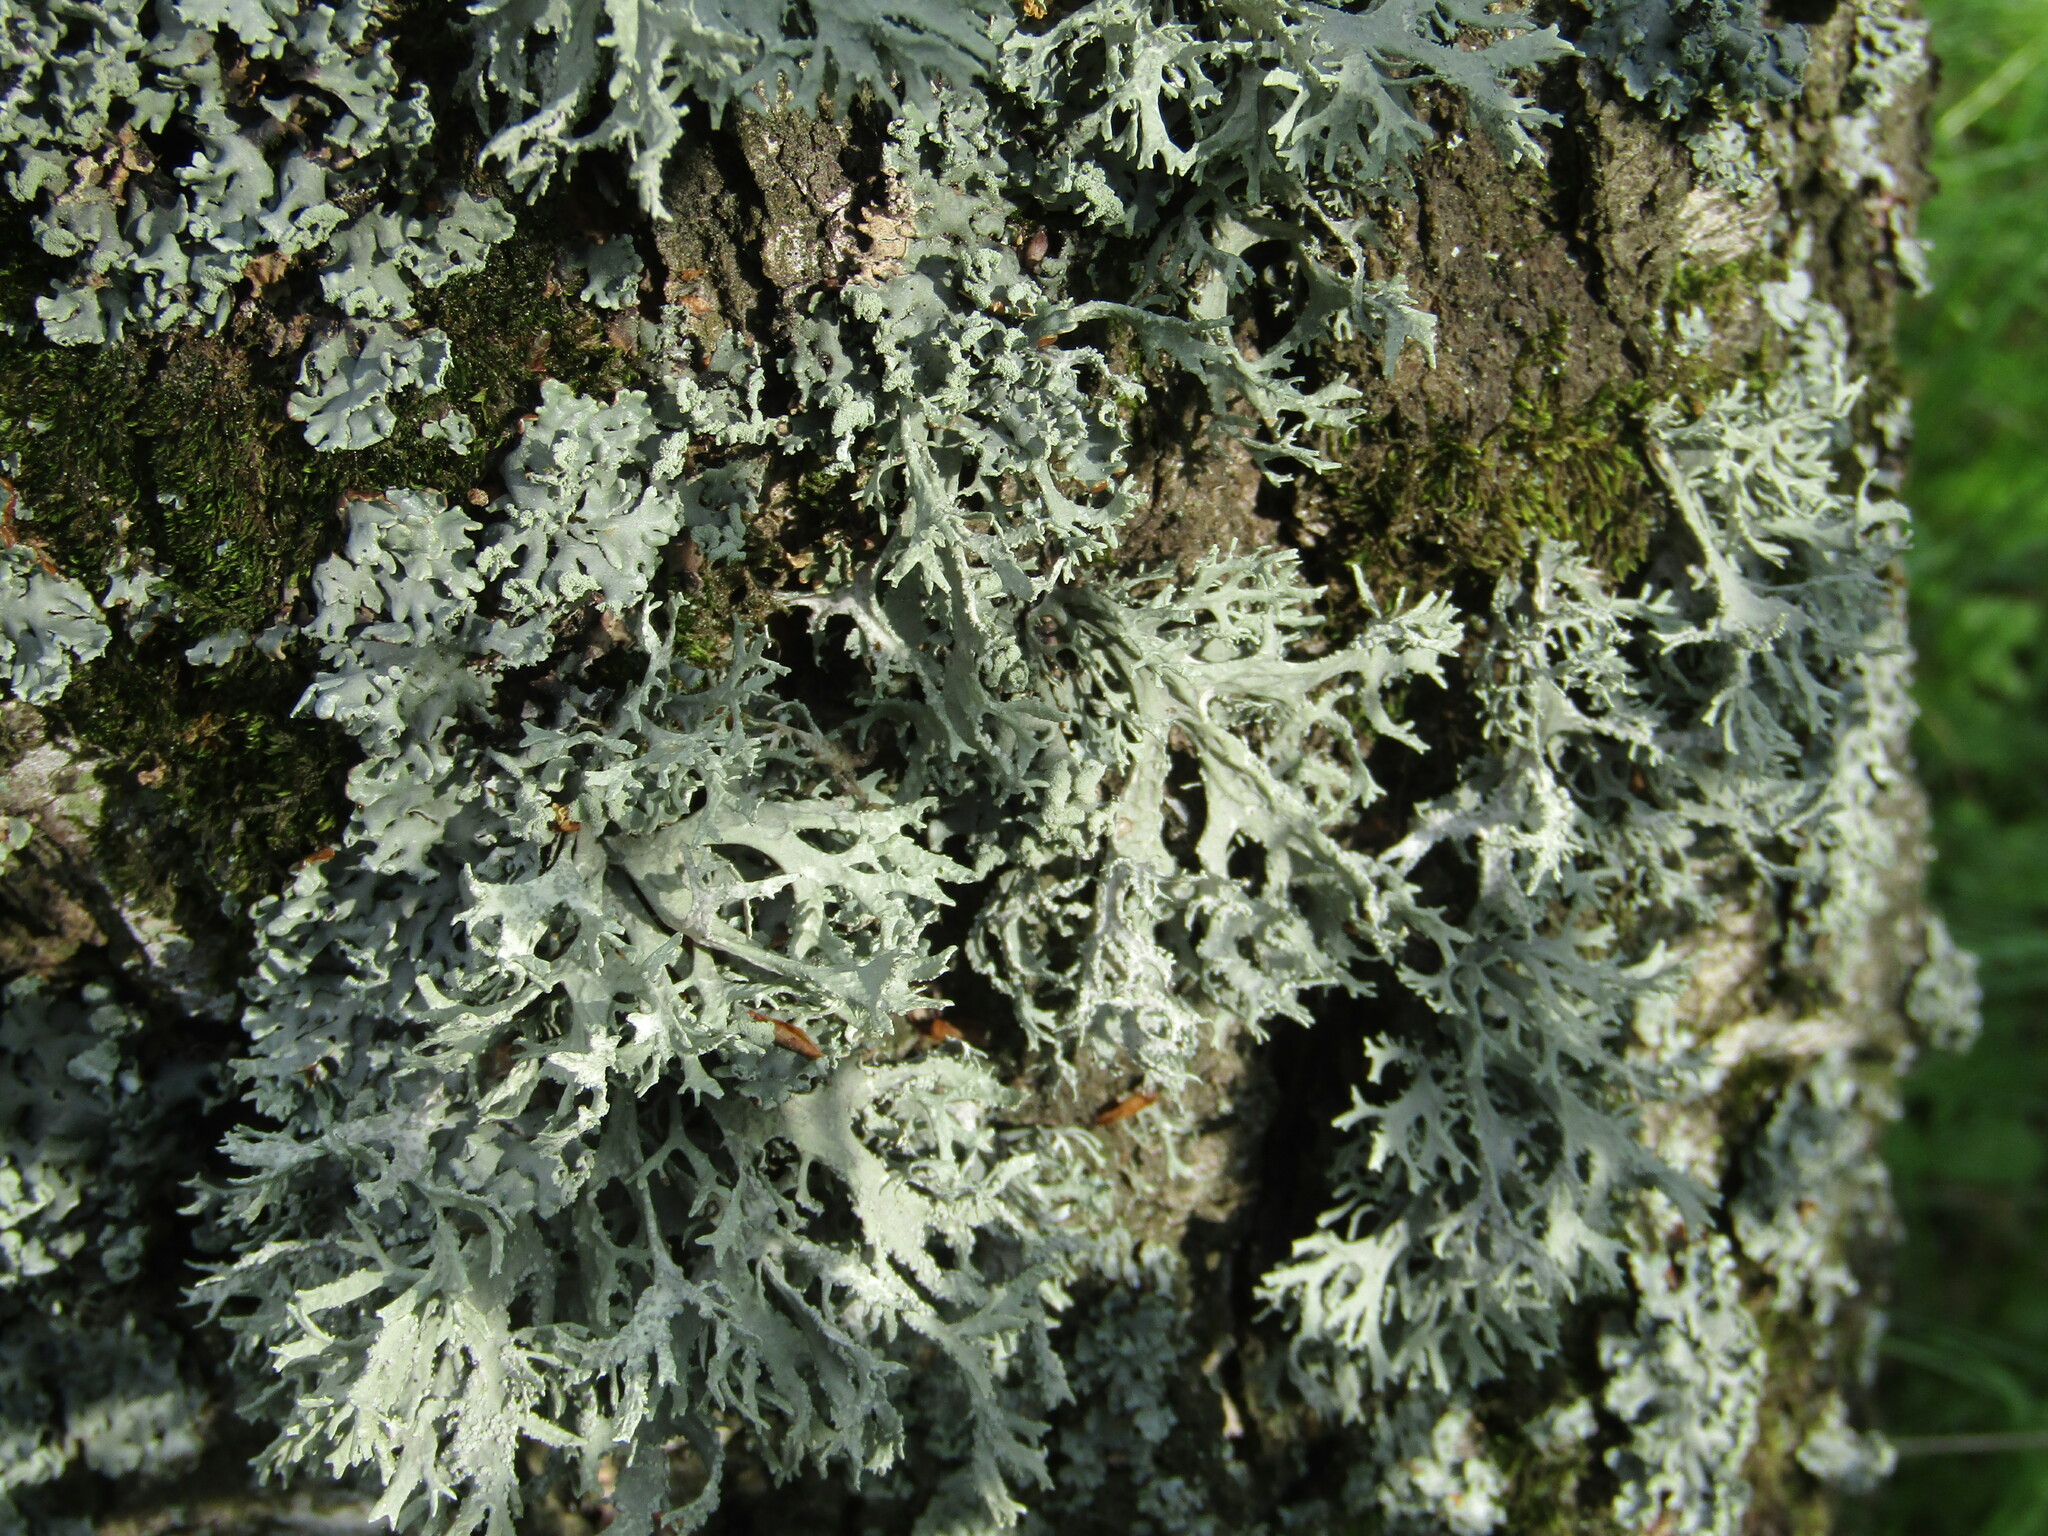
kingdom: Fungi
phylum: Ascomycota
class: Lecanoromycetes
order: Lecanorales
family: Parmeliaceae
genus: Evernia
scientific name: Evernia prunastri
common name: Oak moss
